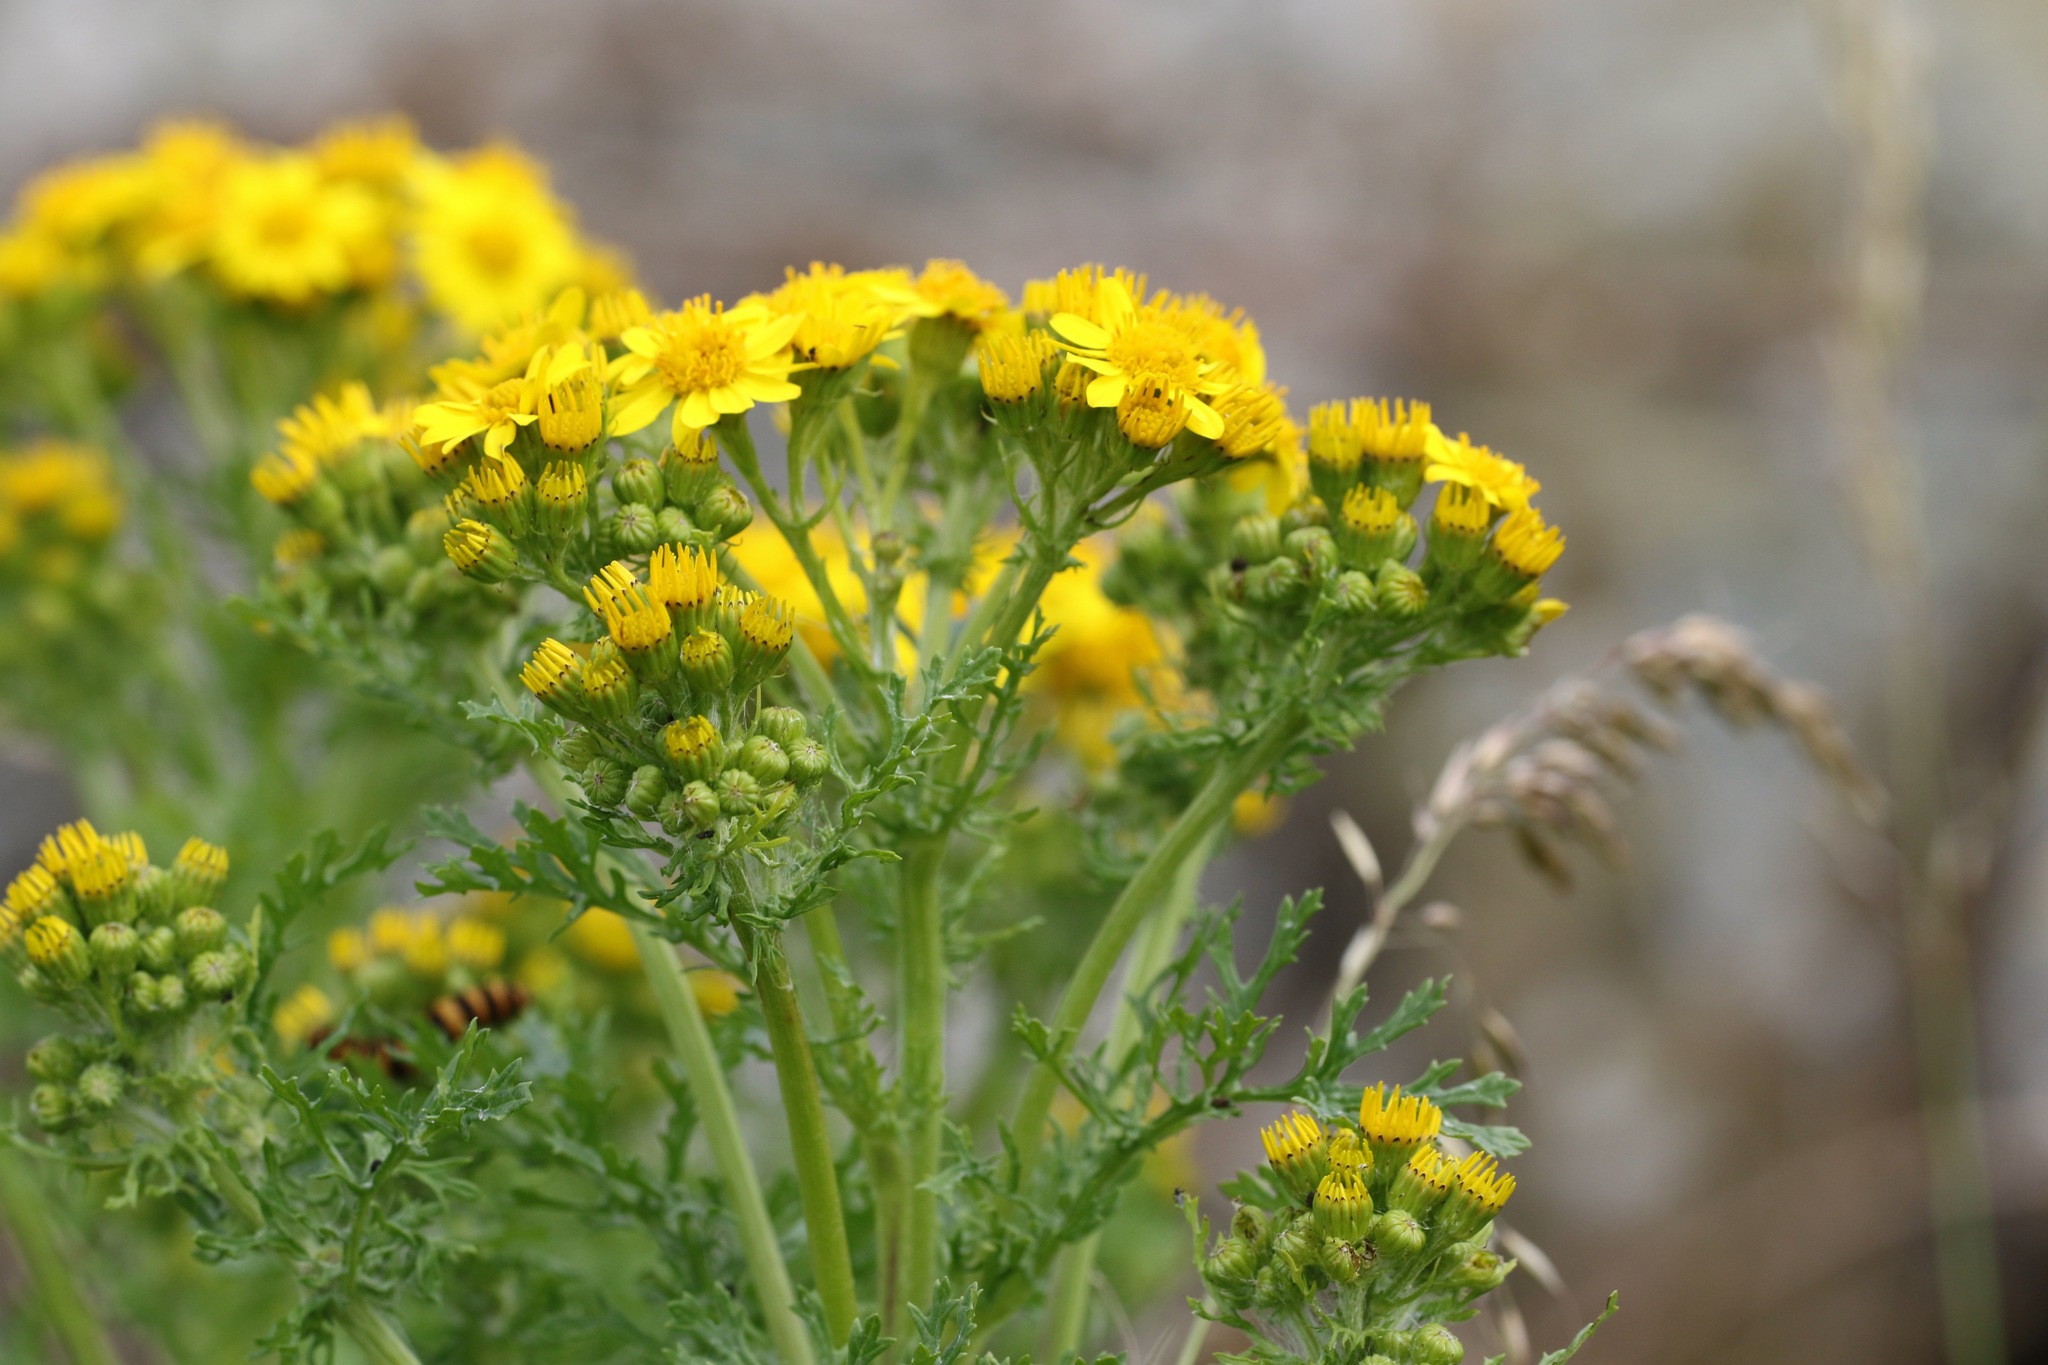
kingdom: Plantae
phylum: Tracheophyta
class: Magnoliopsida
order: Asterales
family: Asteraceae
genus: Jacobaea
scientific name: Jacobaea vulgaris
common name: Stinking willie
